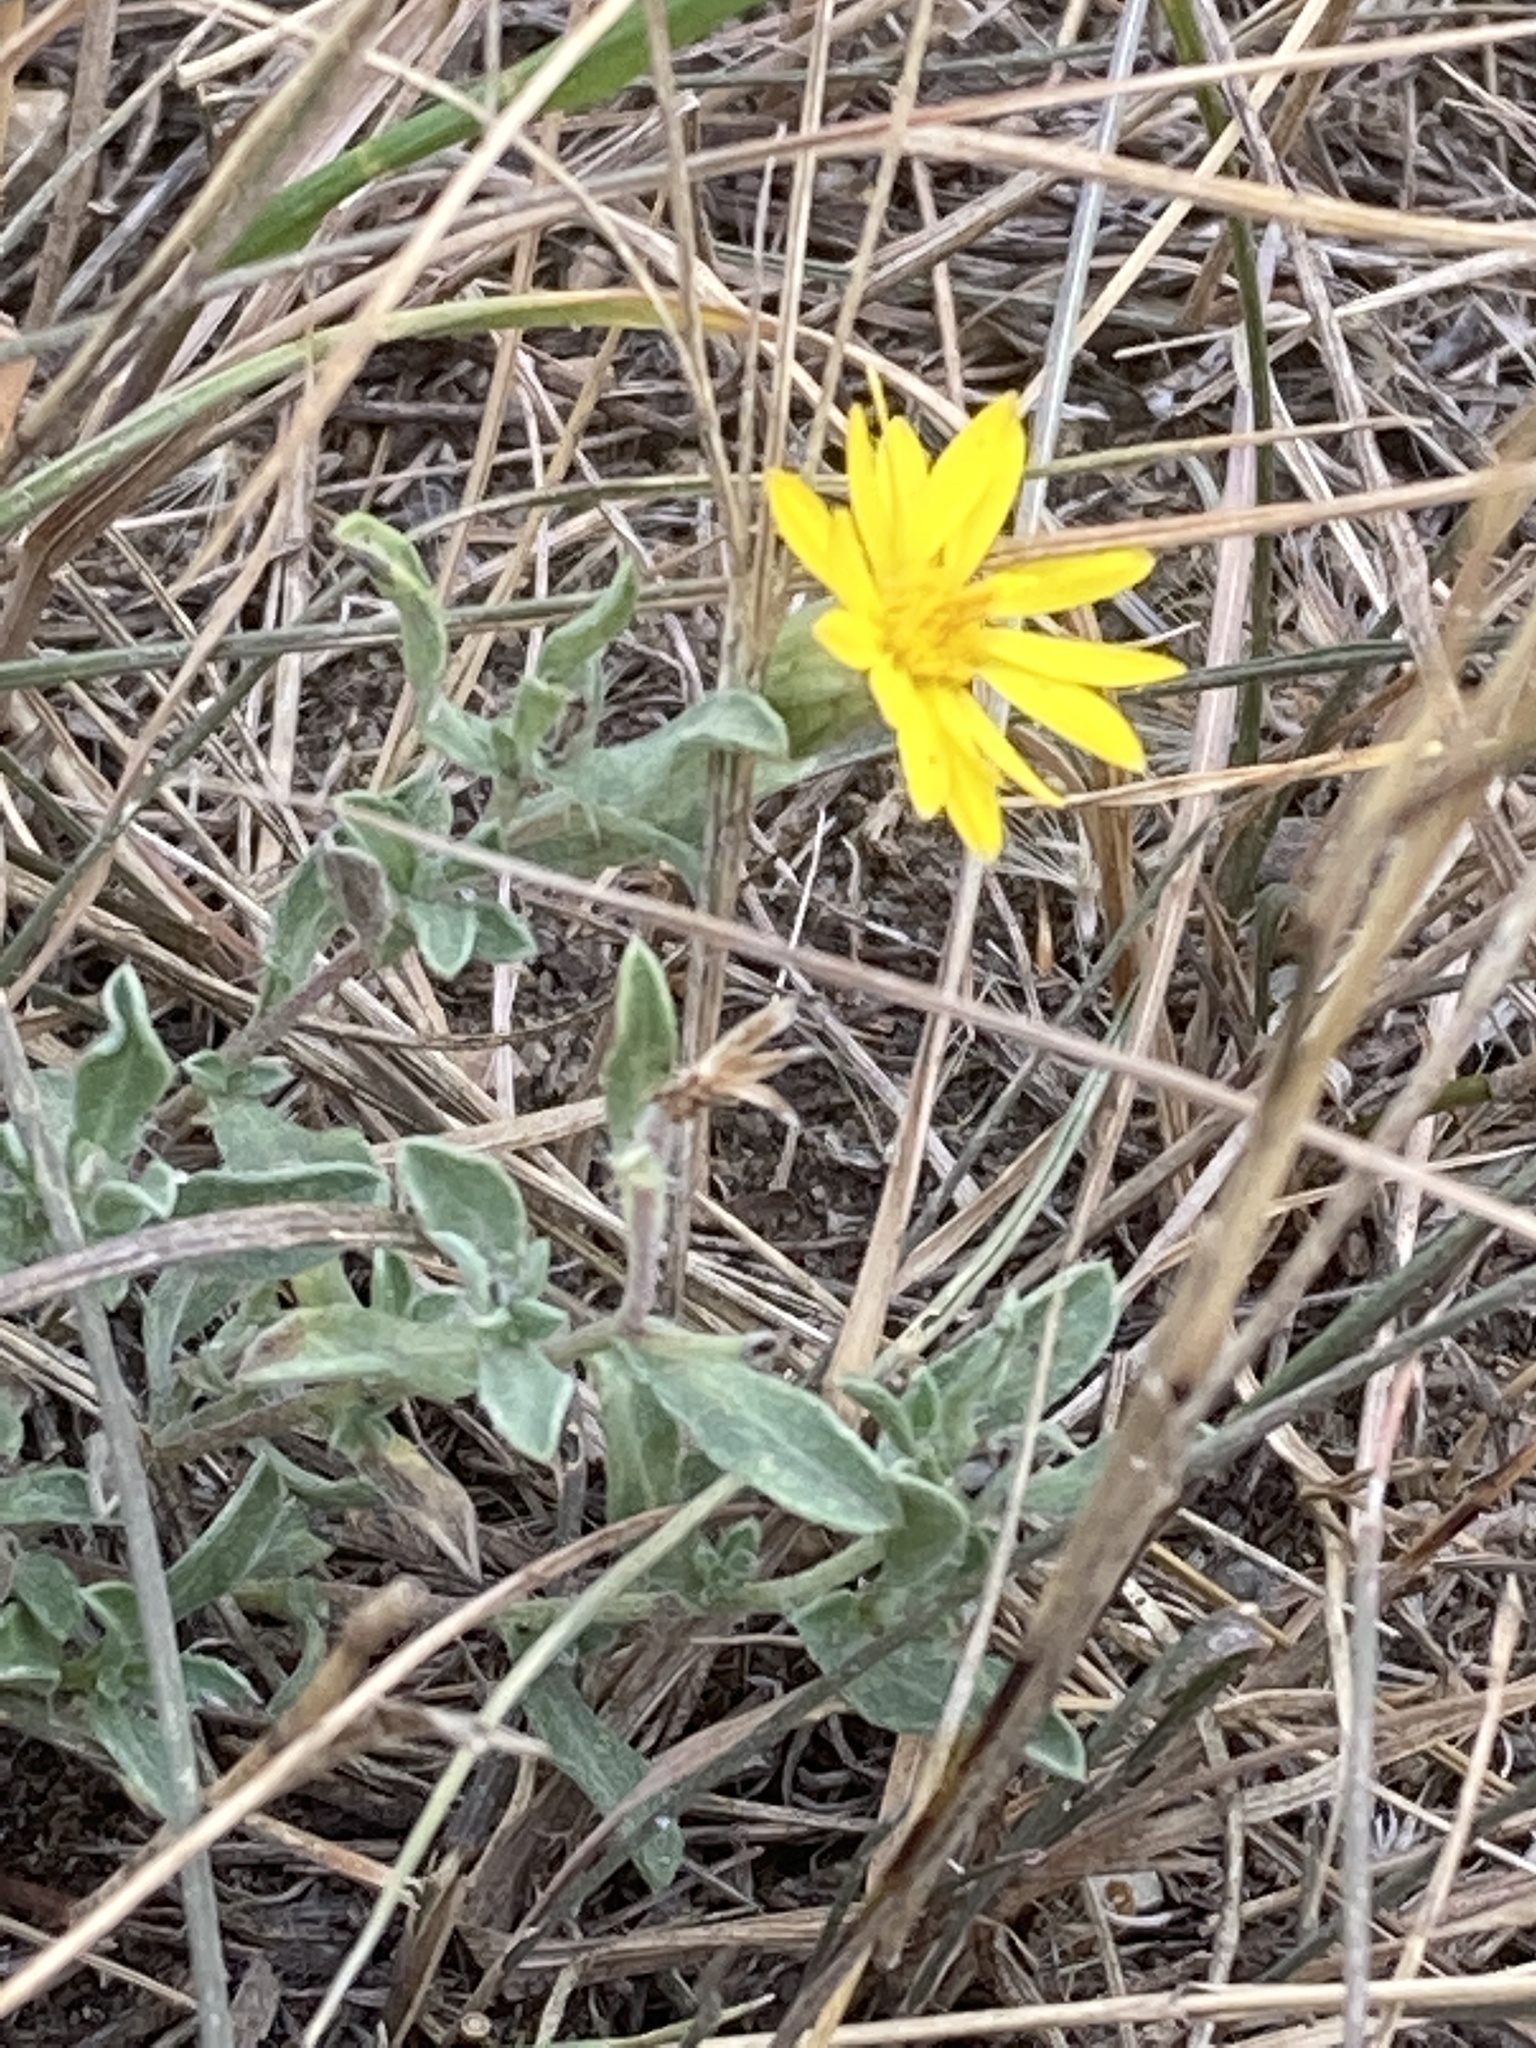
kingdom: Plantae
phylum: Tracheophyta
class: Magnoliopsida
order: Asterales
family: Asteraceae
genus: Heterotheca
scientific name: Heterotheca villosa
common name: Hairy false goldenaster
